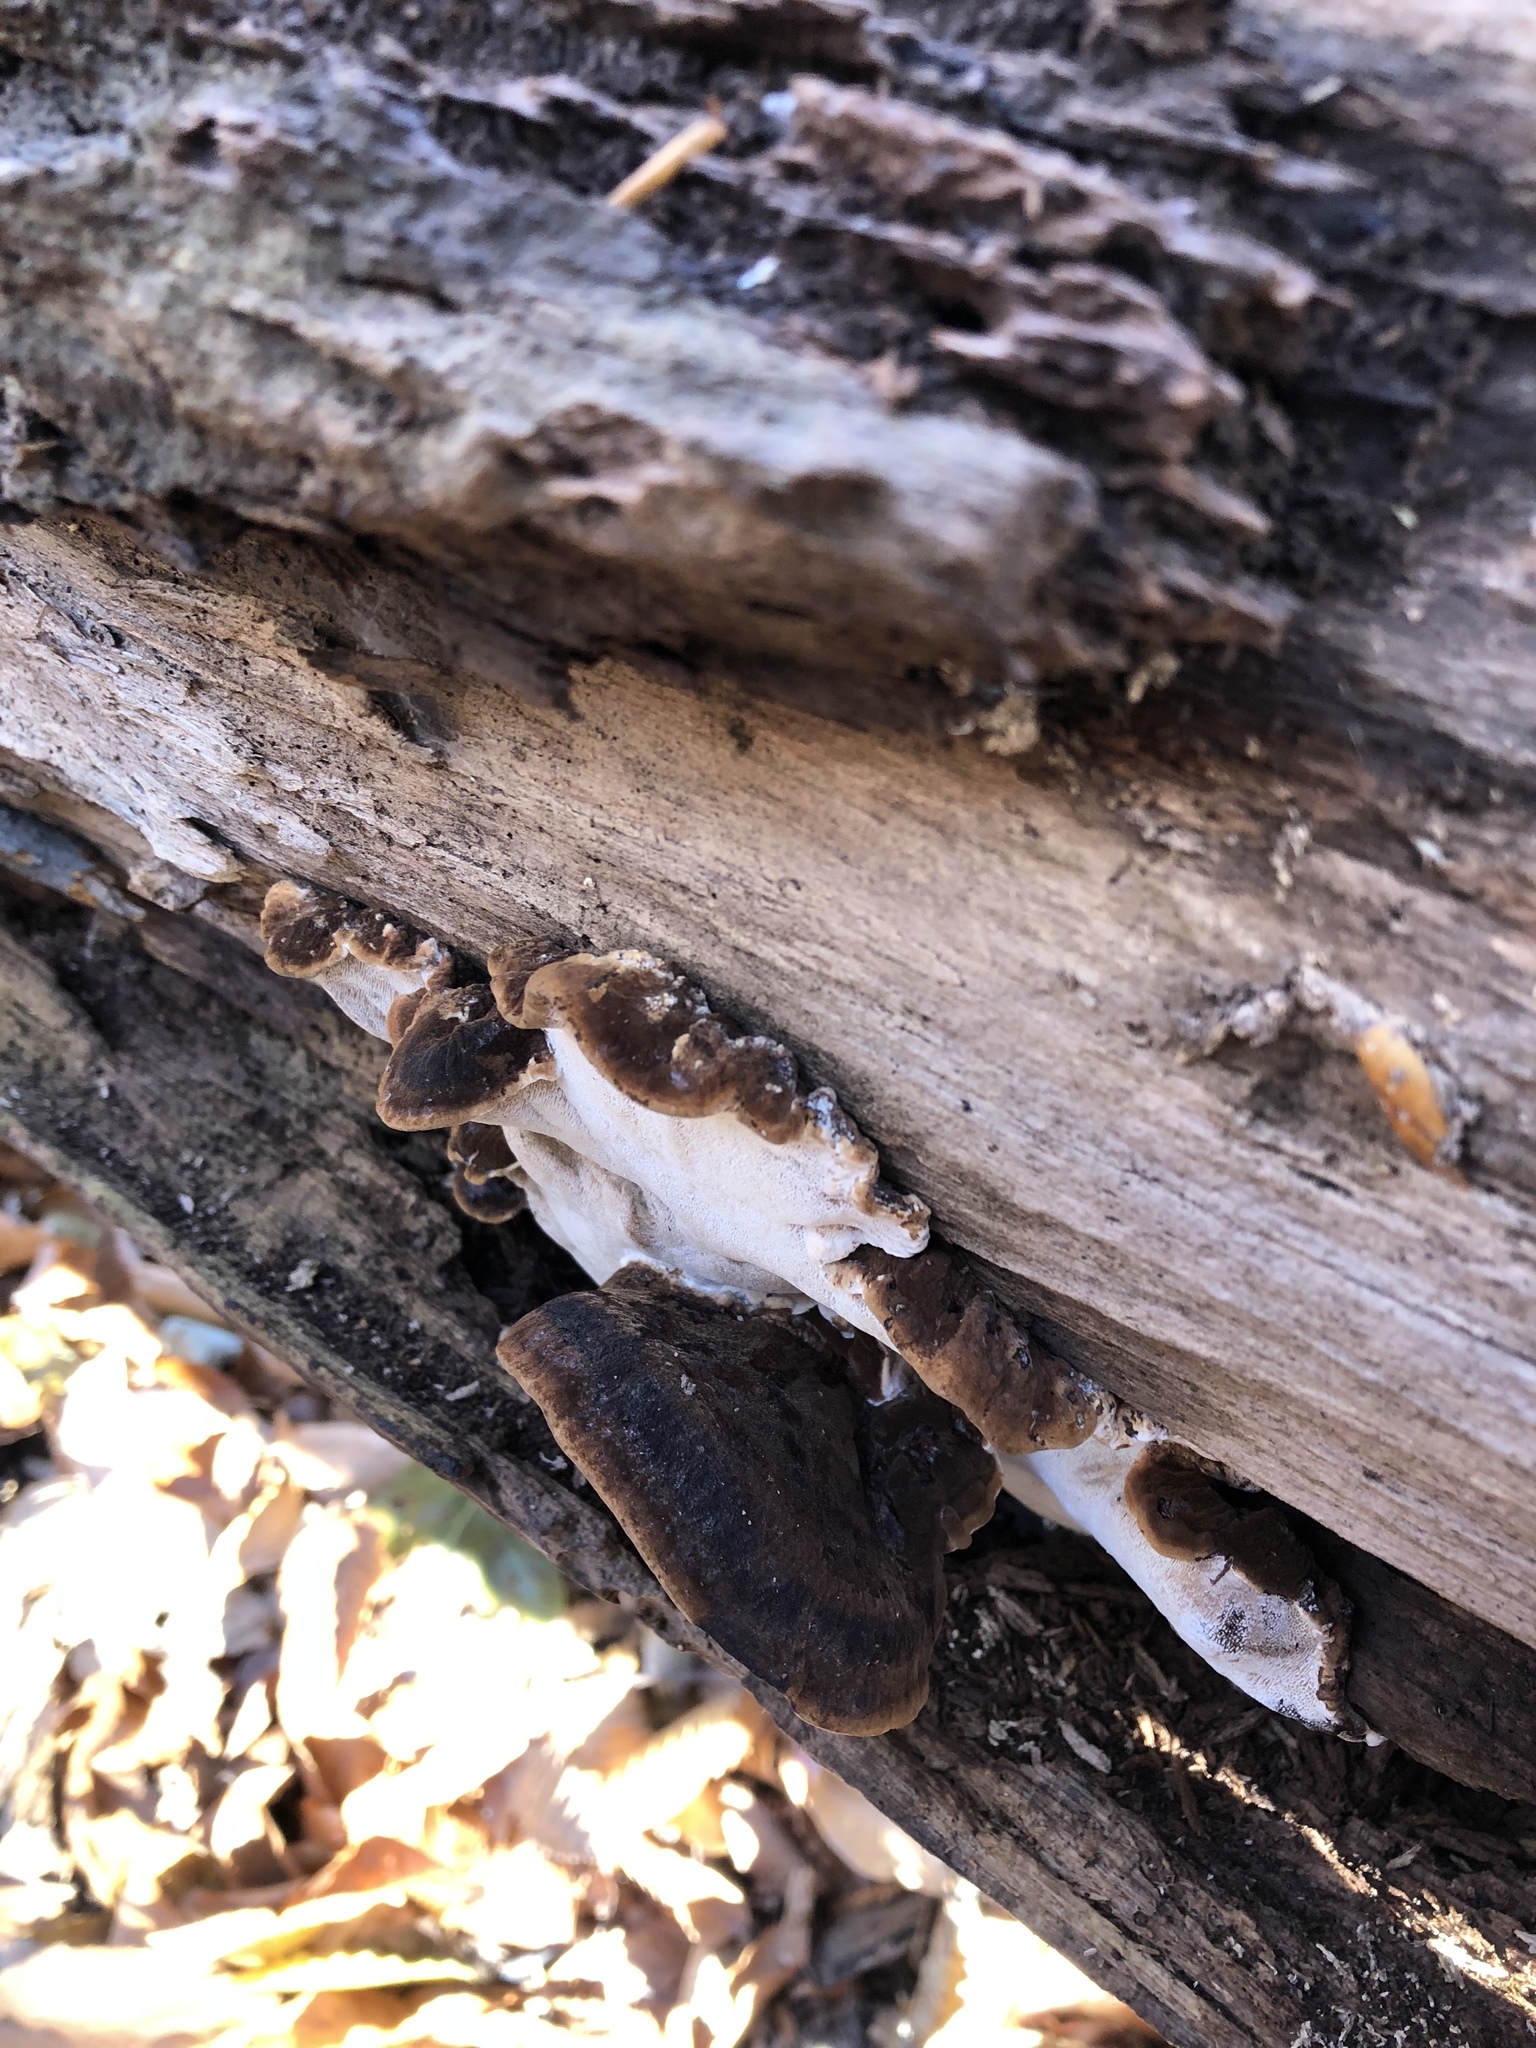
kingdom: Fungi
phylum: Basidiomycota
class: Agaricomycetes
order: Polyporales
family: Ischnodermataceae
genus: Ischnoderma
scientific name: Ischnoderma resinosum
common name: Resinous polypore
